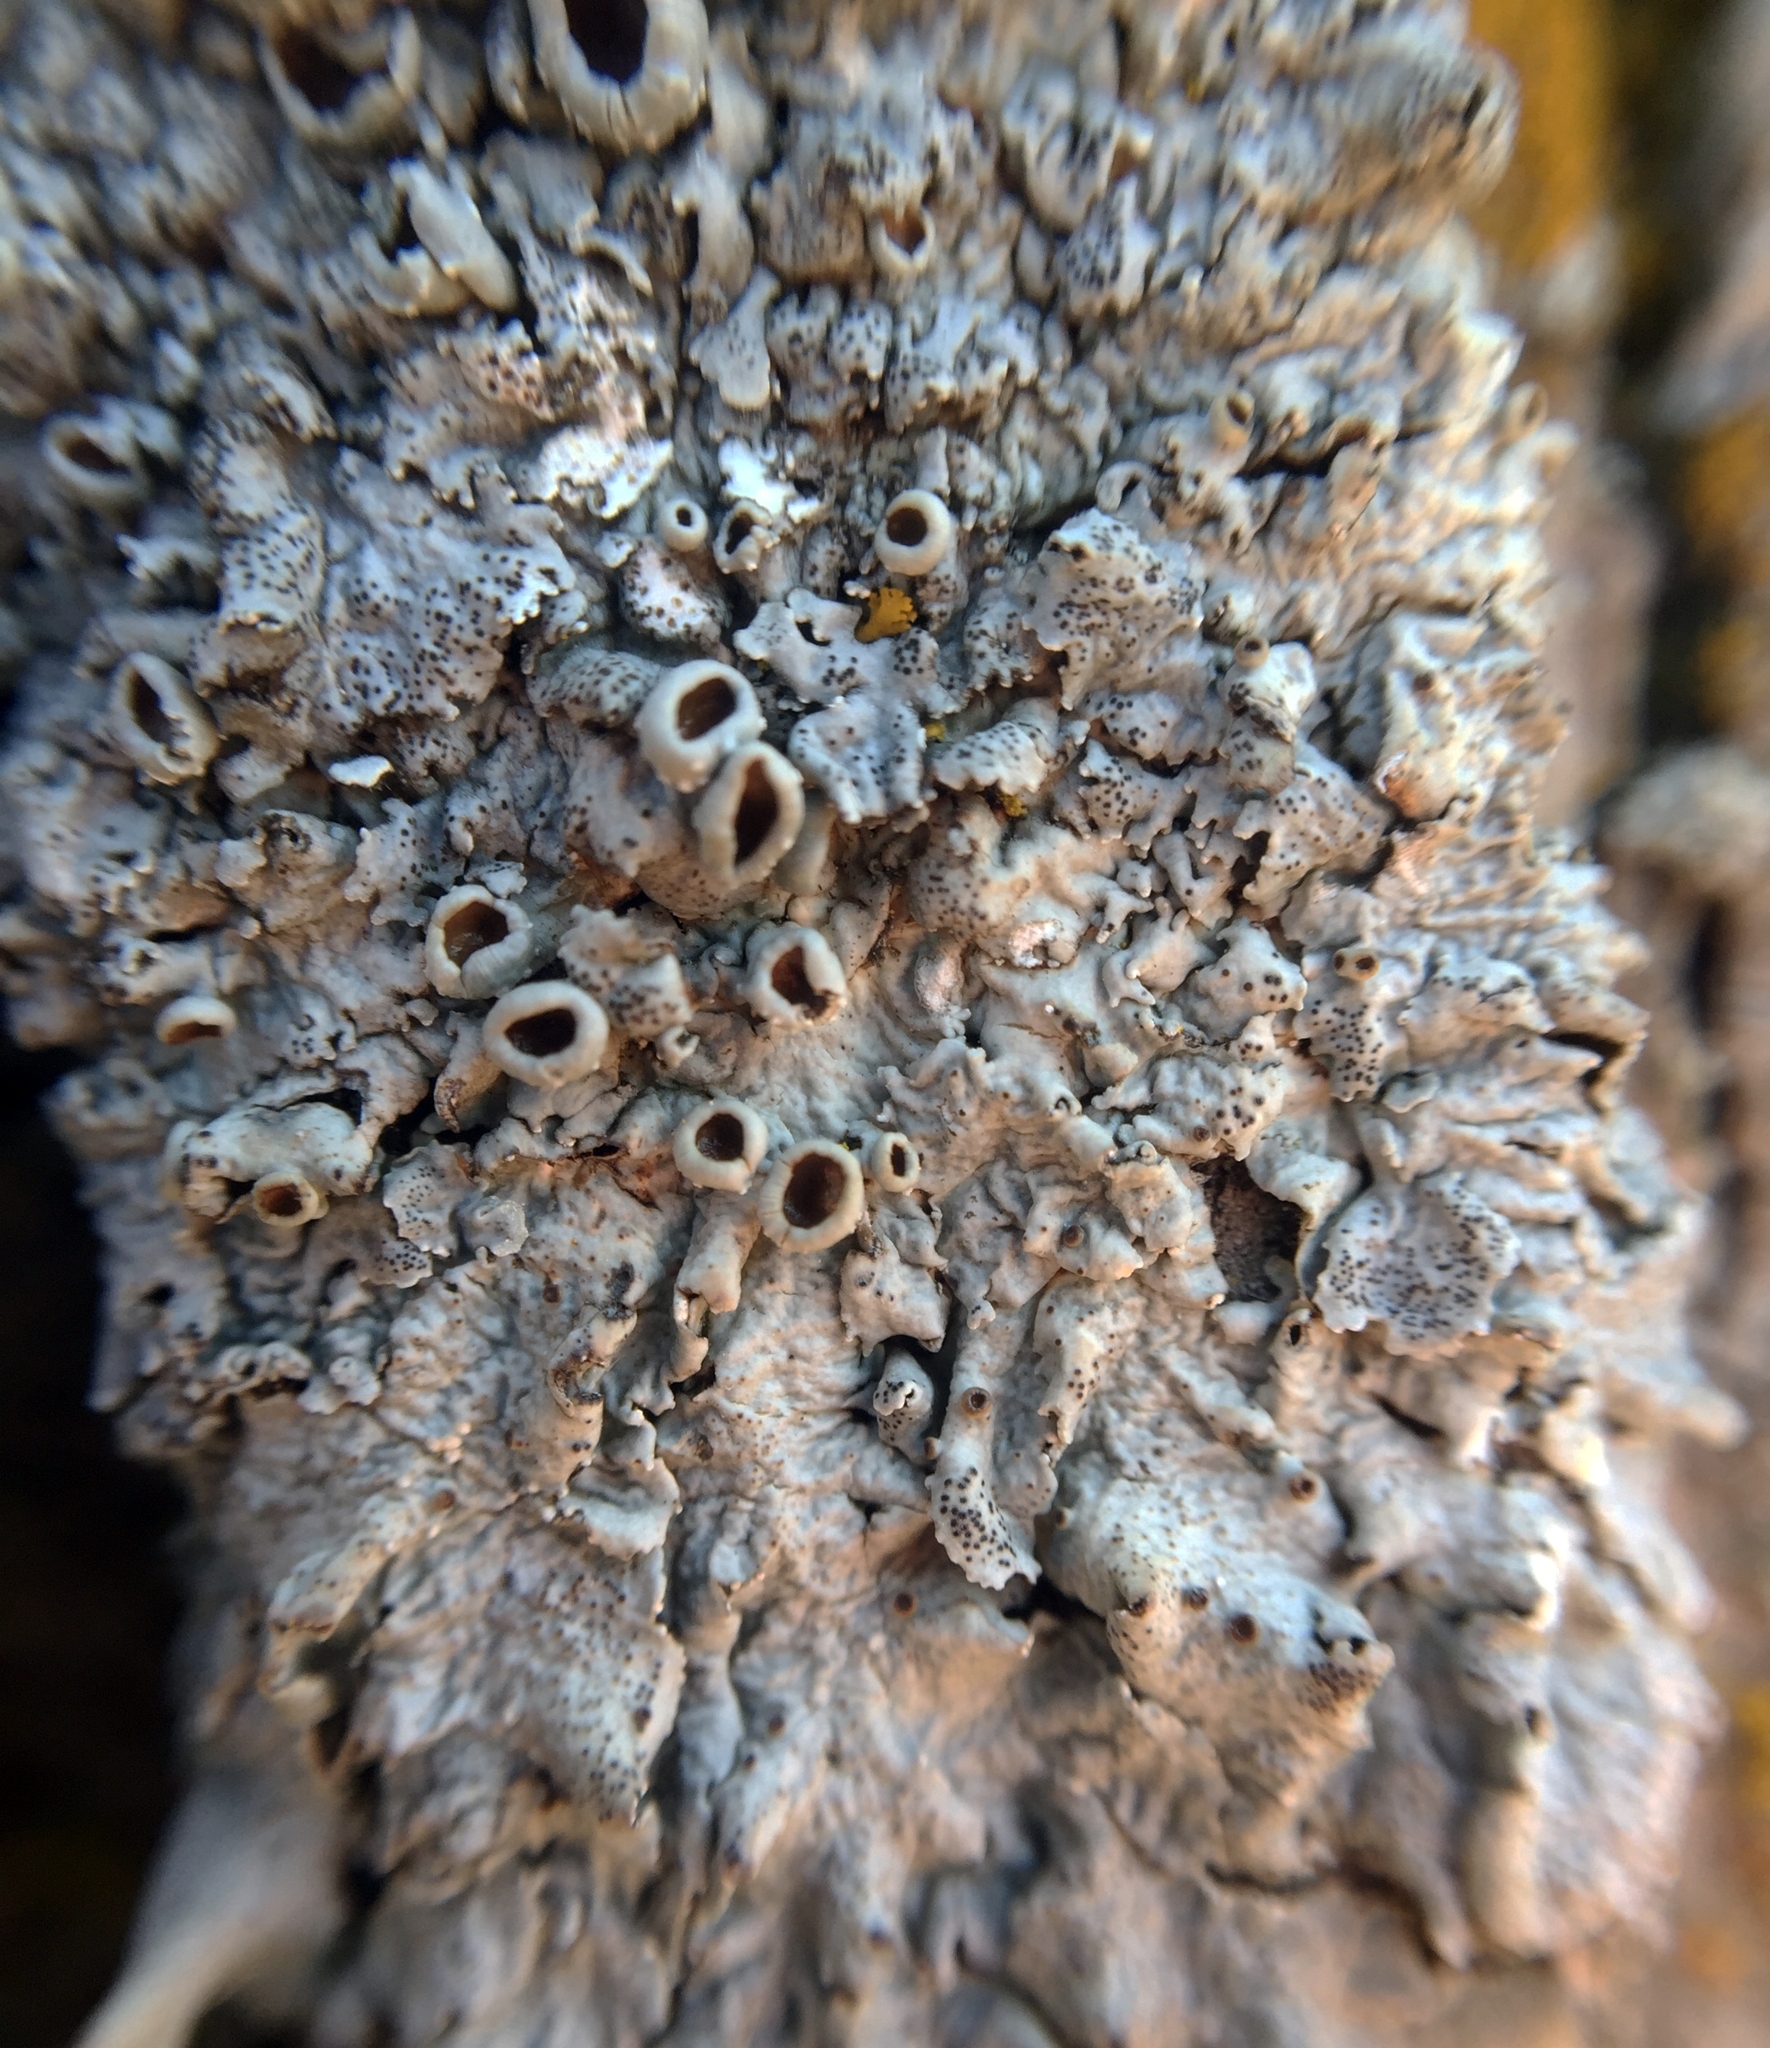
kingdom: Fungi
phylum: Ascomycota
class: Lecanoromycetes
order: Lecanorales
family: Parmeliaceae
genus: Punctelia
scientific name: Punctelia bolliana
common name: Eastern speckled shield lichen
